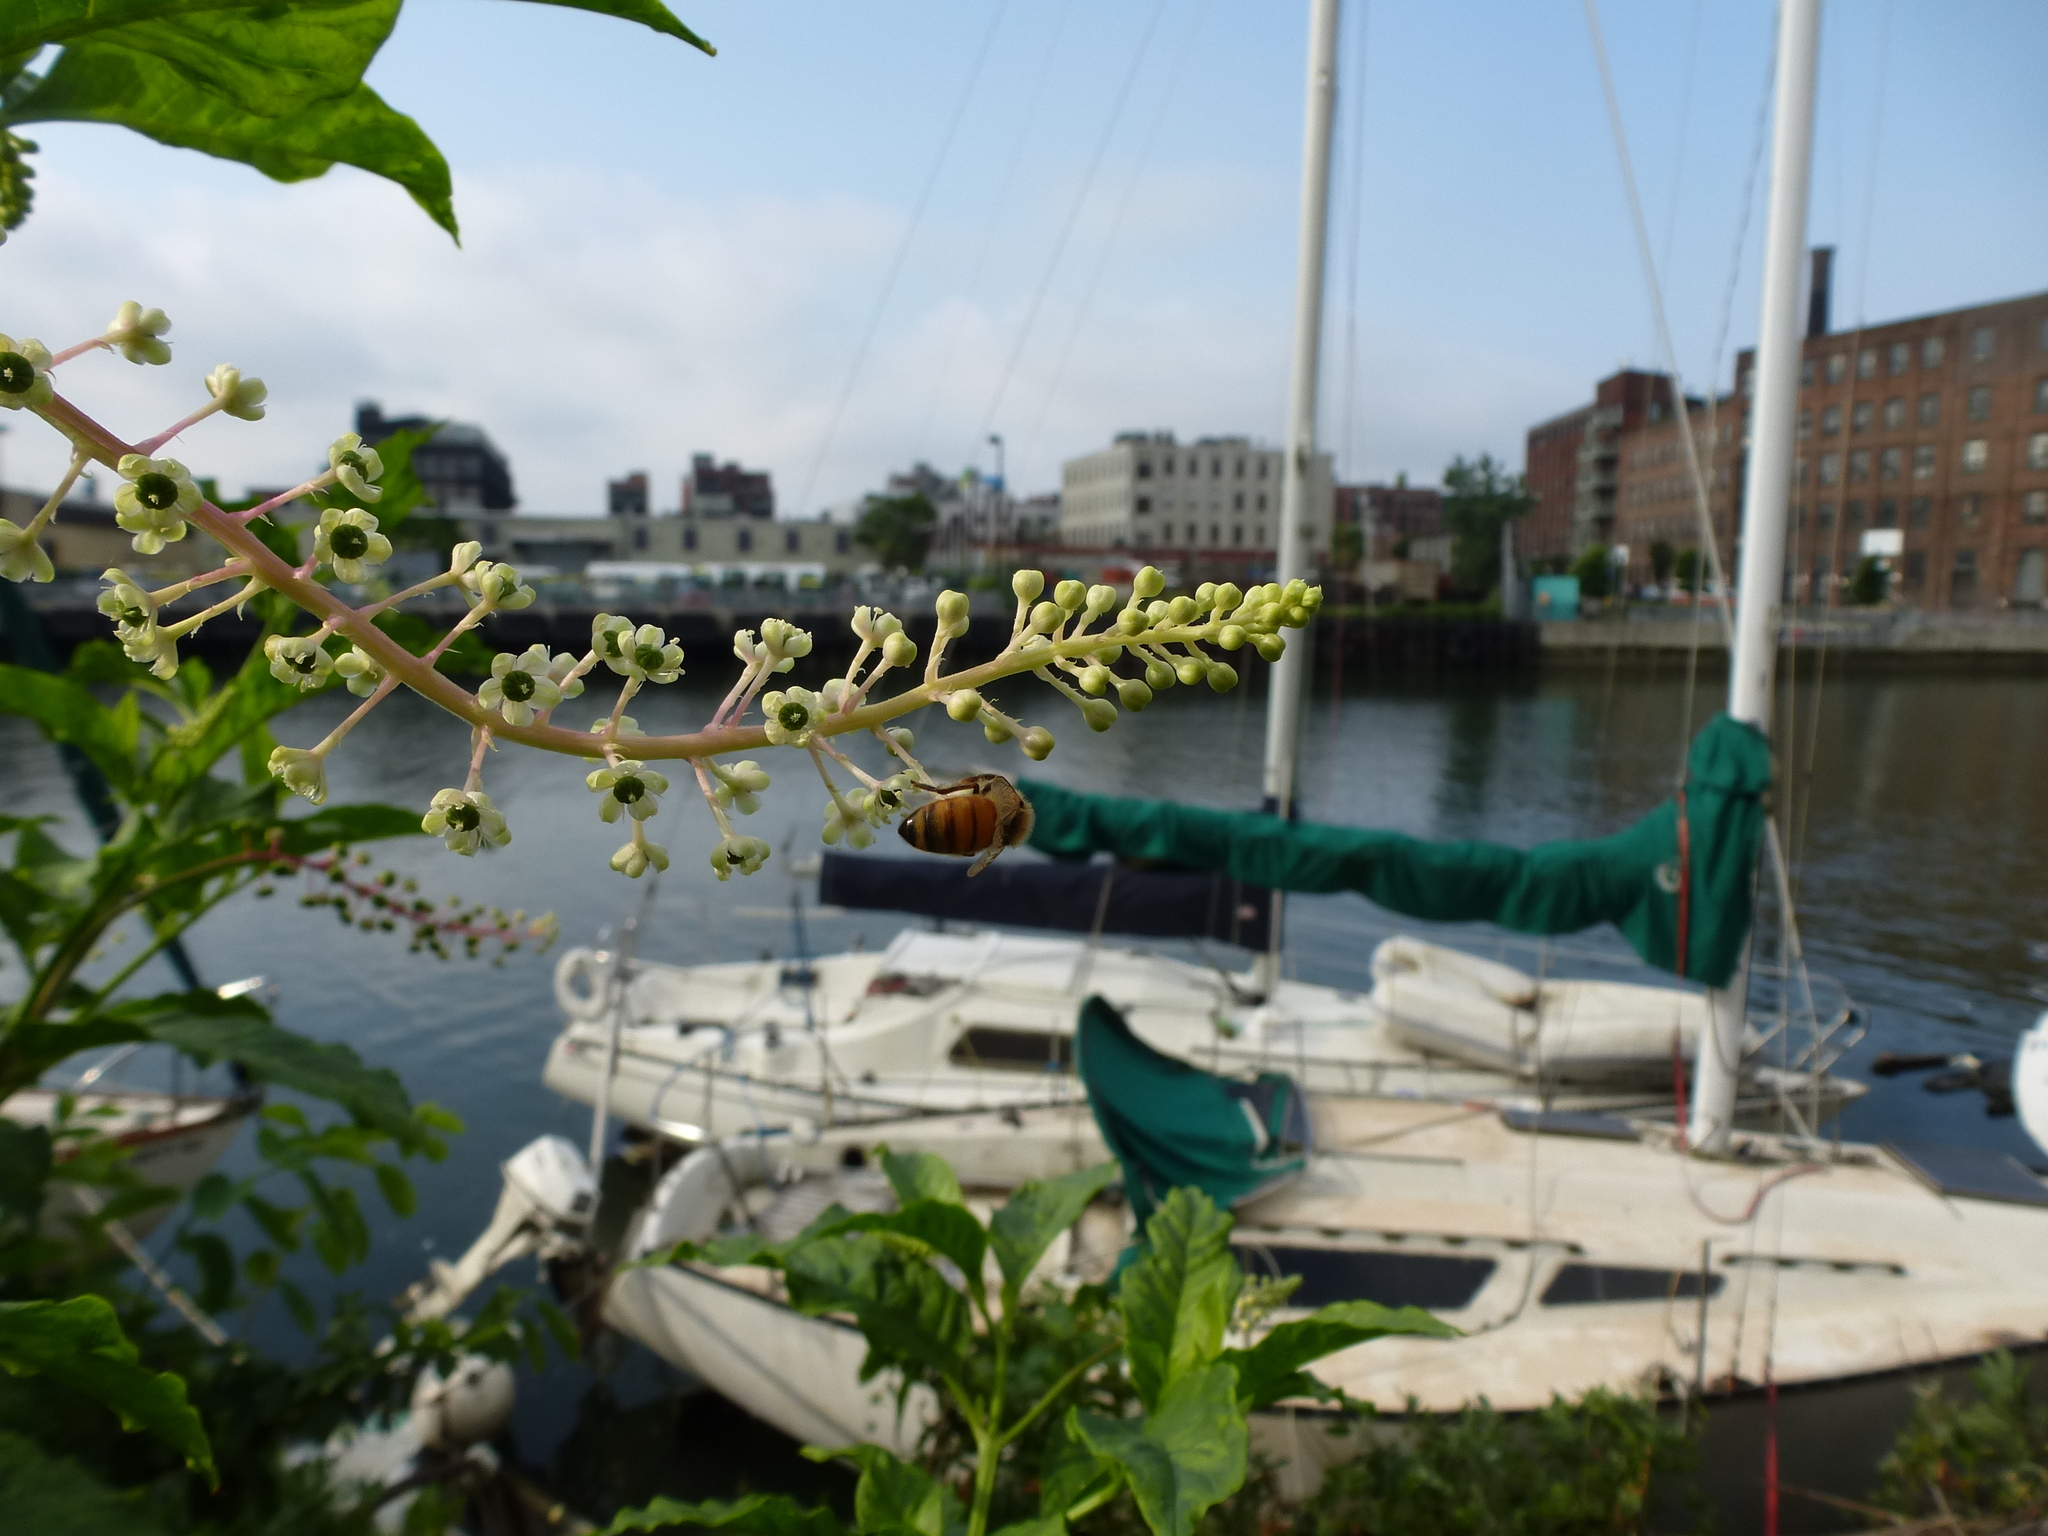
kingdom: Animalia
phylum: Arthropoda
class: Insecta
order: Hymenoptera
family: Apidae
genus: Apis
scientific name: Apis mellifera
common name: Honey bee
